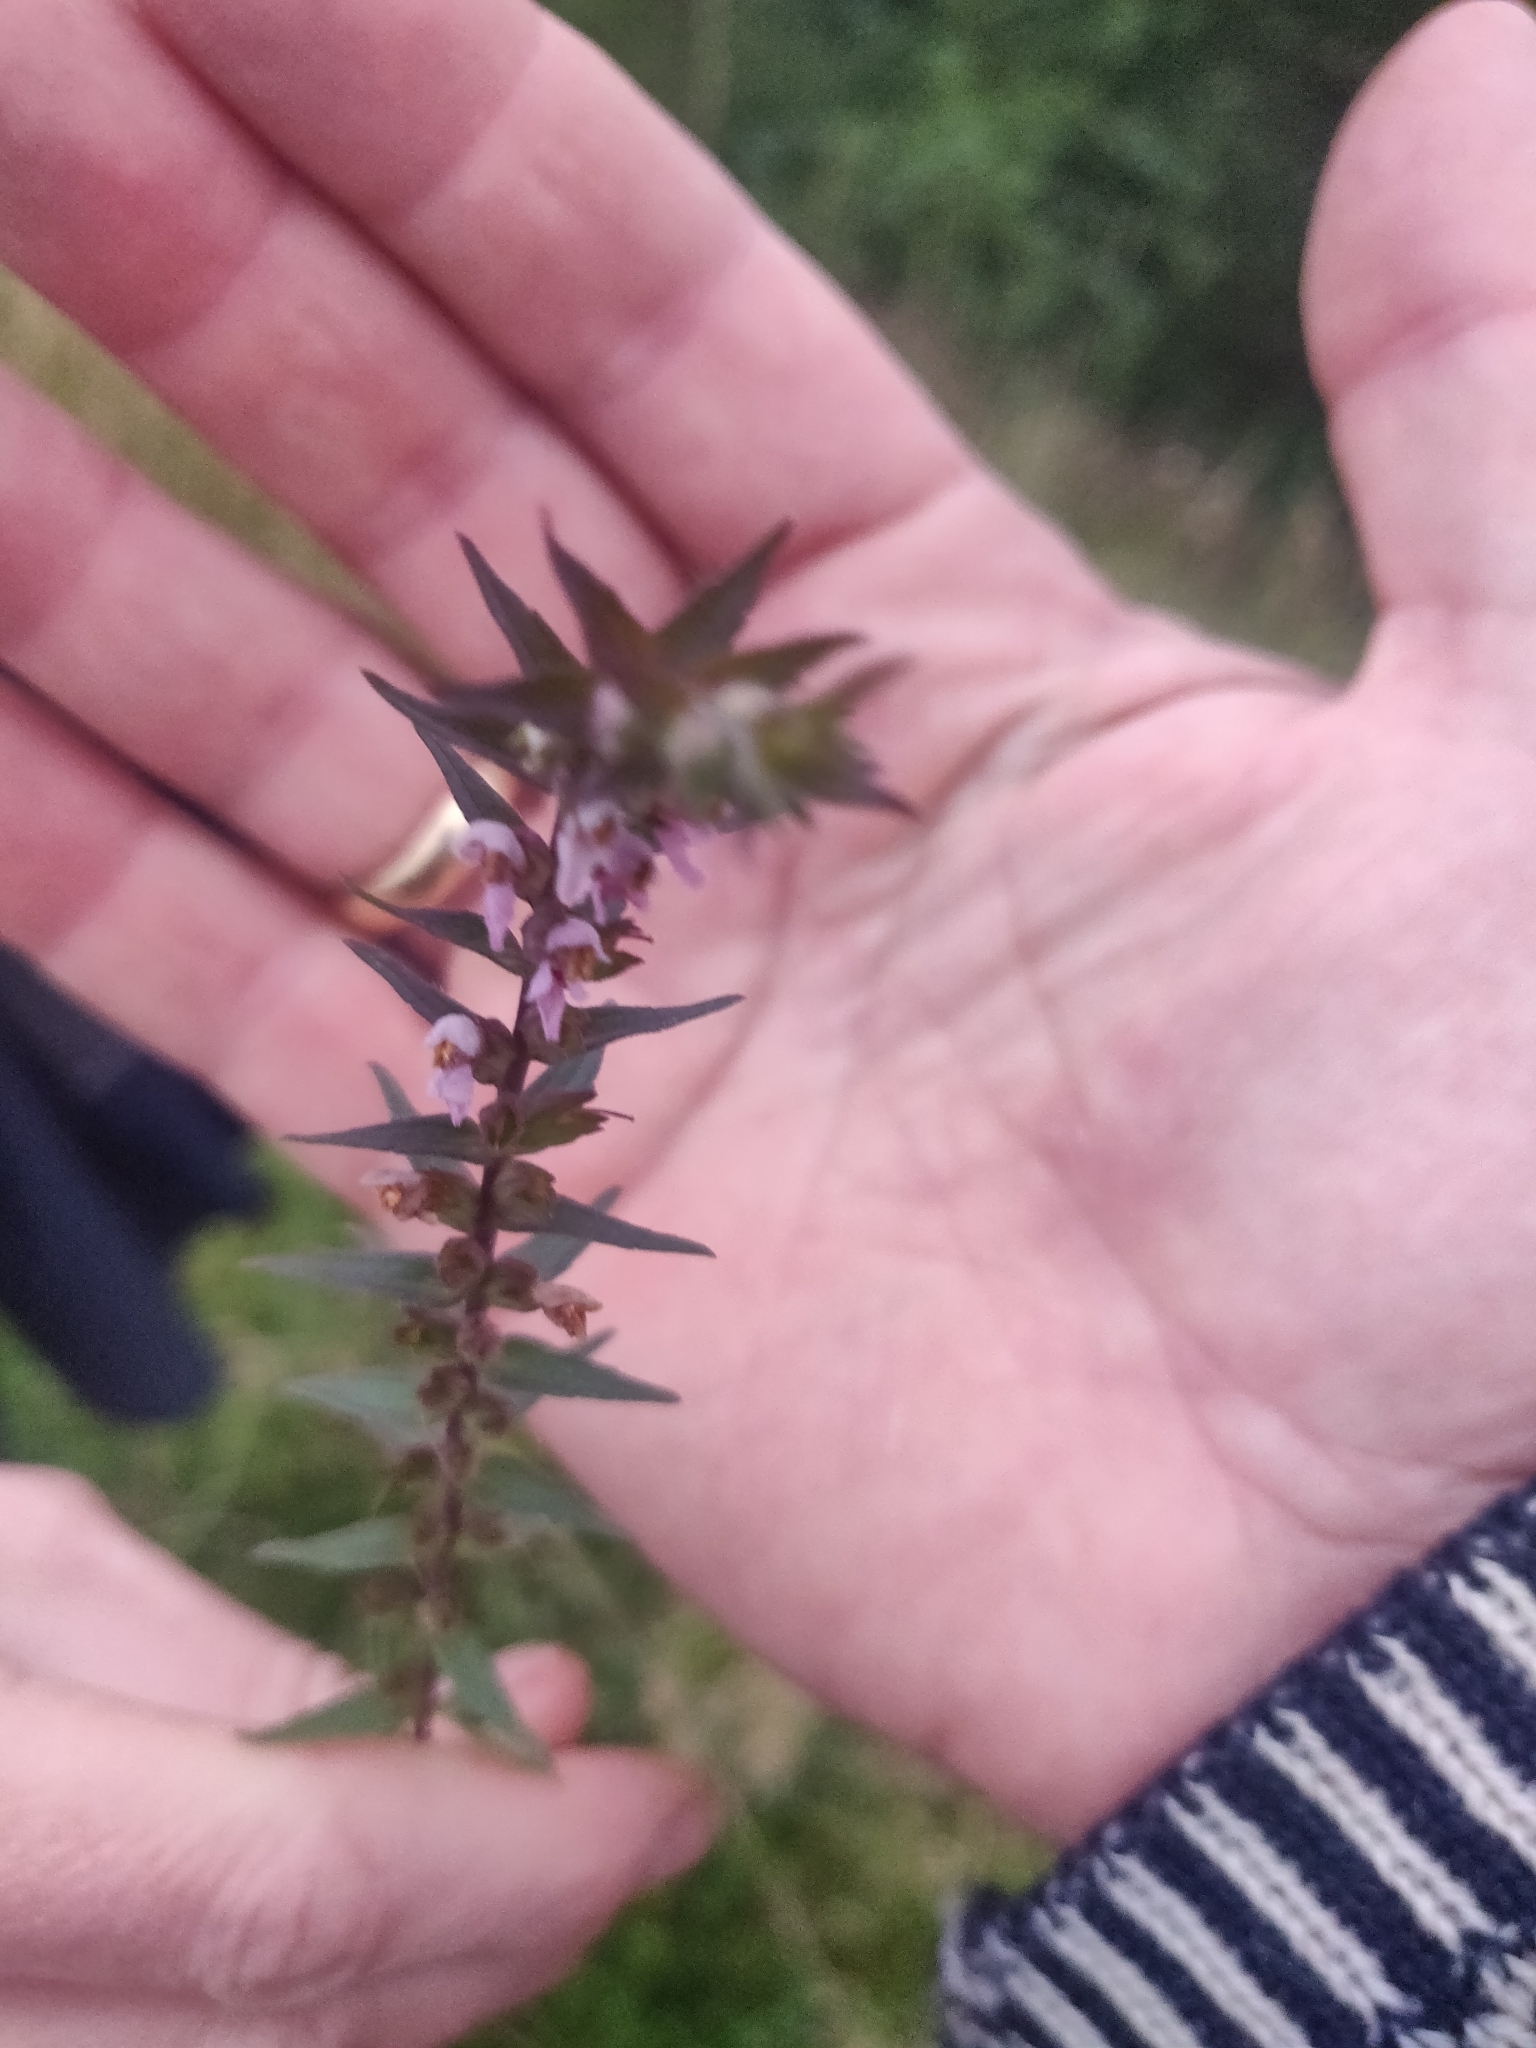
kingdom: Plantae
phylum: Tracheophyta
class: Magnoliopsida
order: Lamiales
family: Orobanchaceae
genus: Odontites
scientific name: Odontites vulgaris
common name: Broomrape
